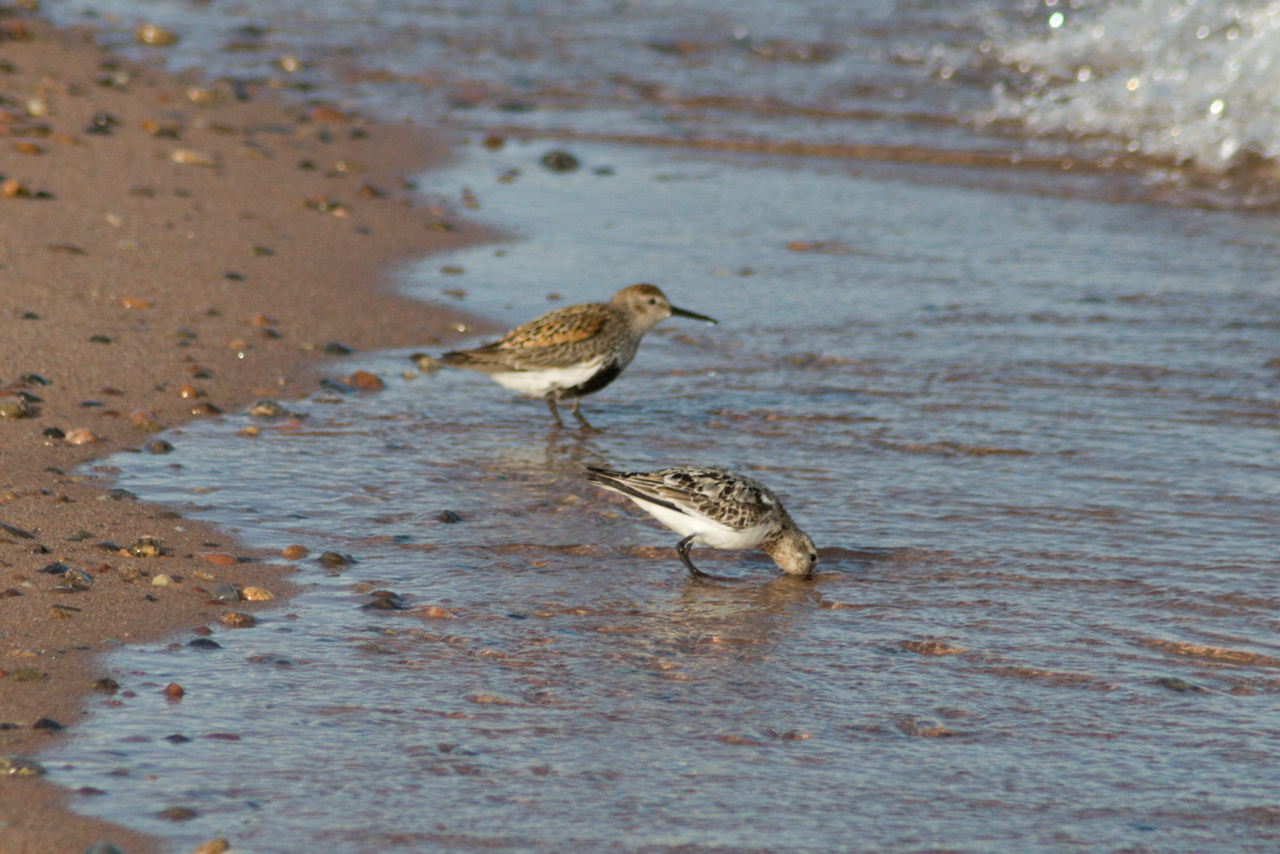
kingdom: Animalia
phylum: Chordata
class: Aves
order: Charadriiformes
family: Scolopacidae
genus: Calidris
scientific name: Calidris alpina
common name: Dunlin
